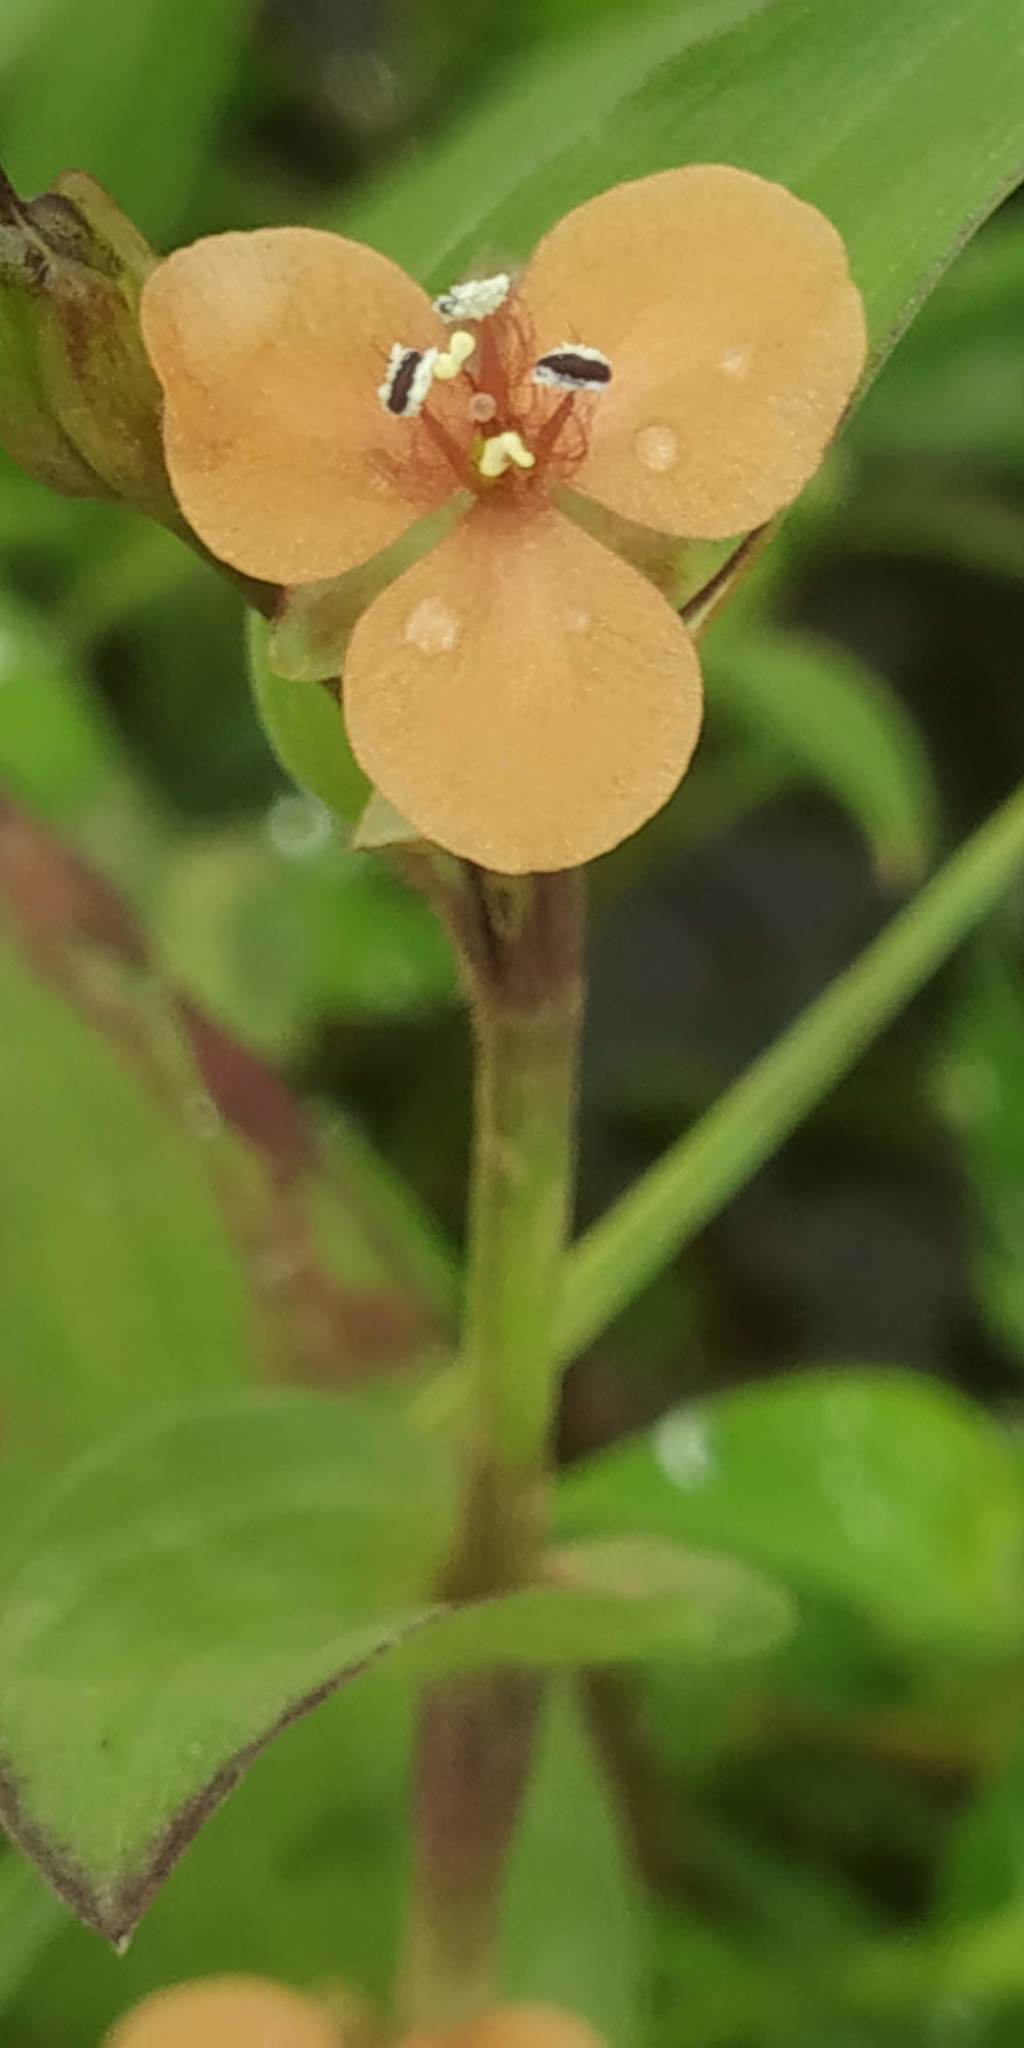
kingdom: Plantae
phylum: Tracheophyta
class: Liliopsida
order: Commelinales
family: Commelinaceae
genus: Murdannia
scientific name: Murdannia lanuginosa
